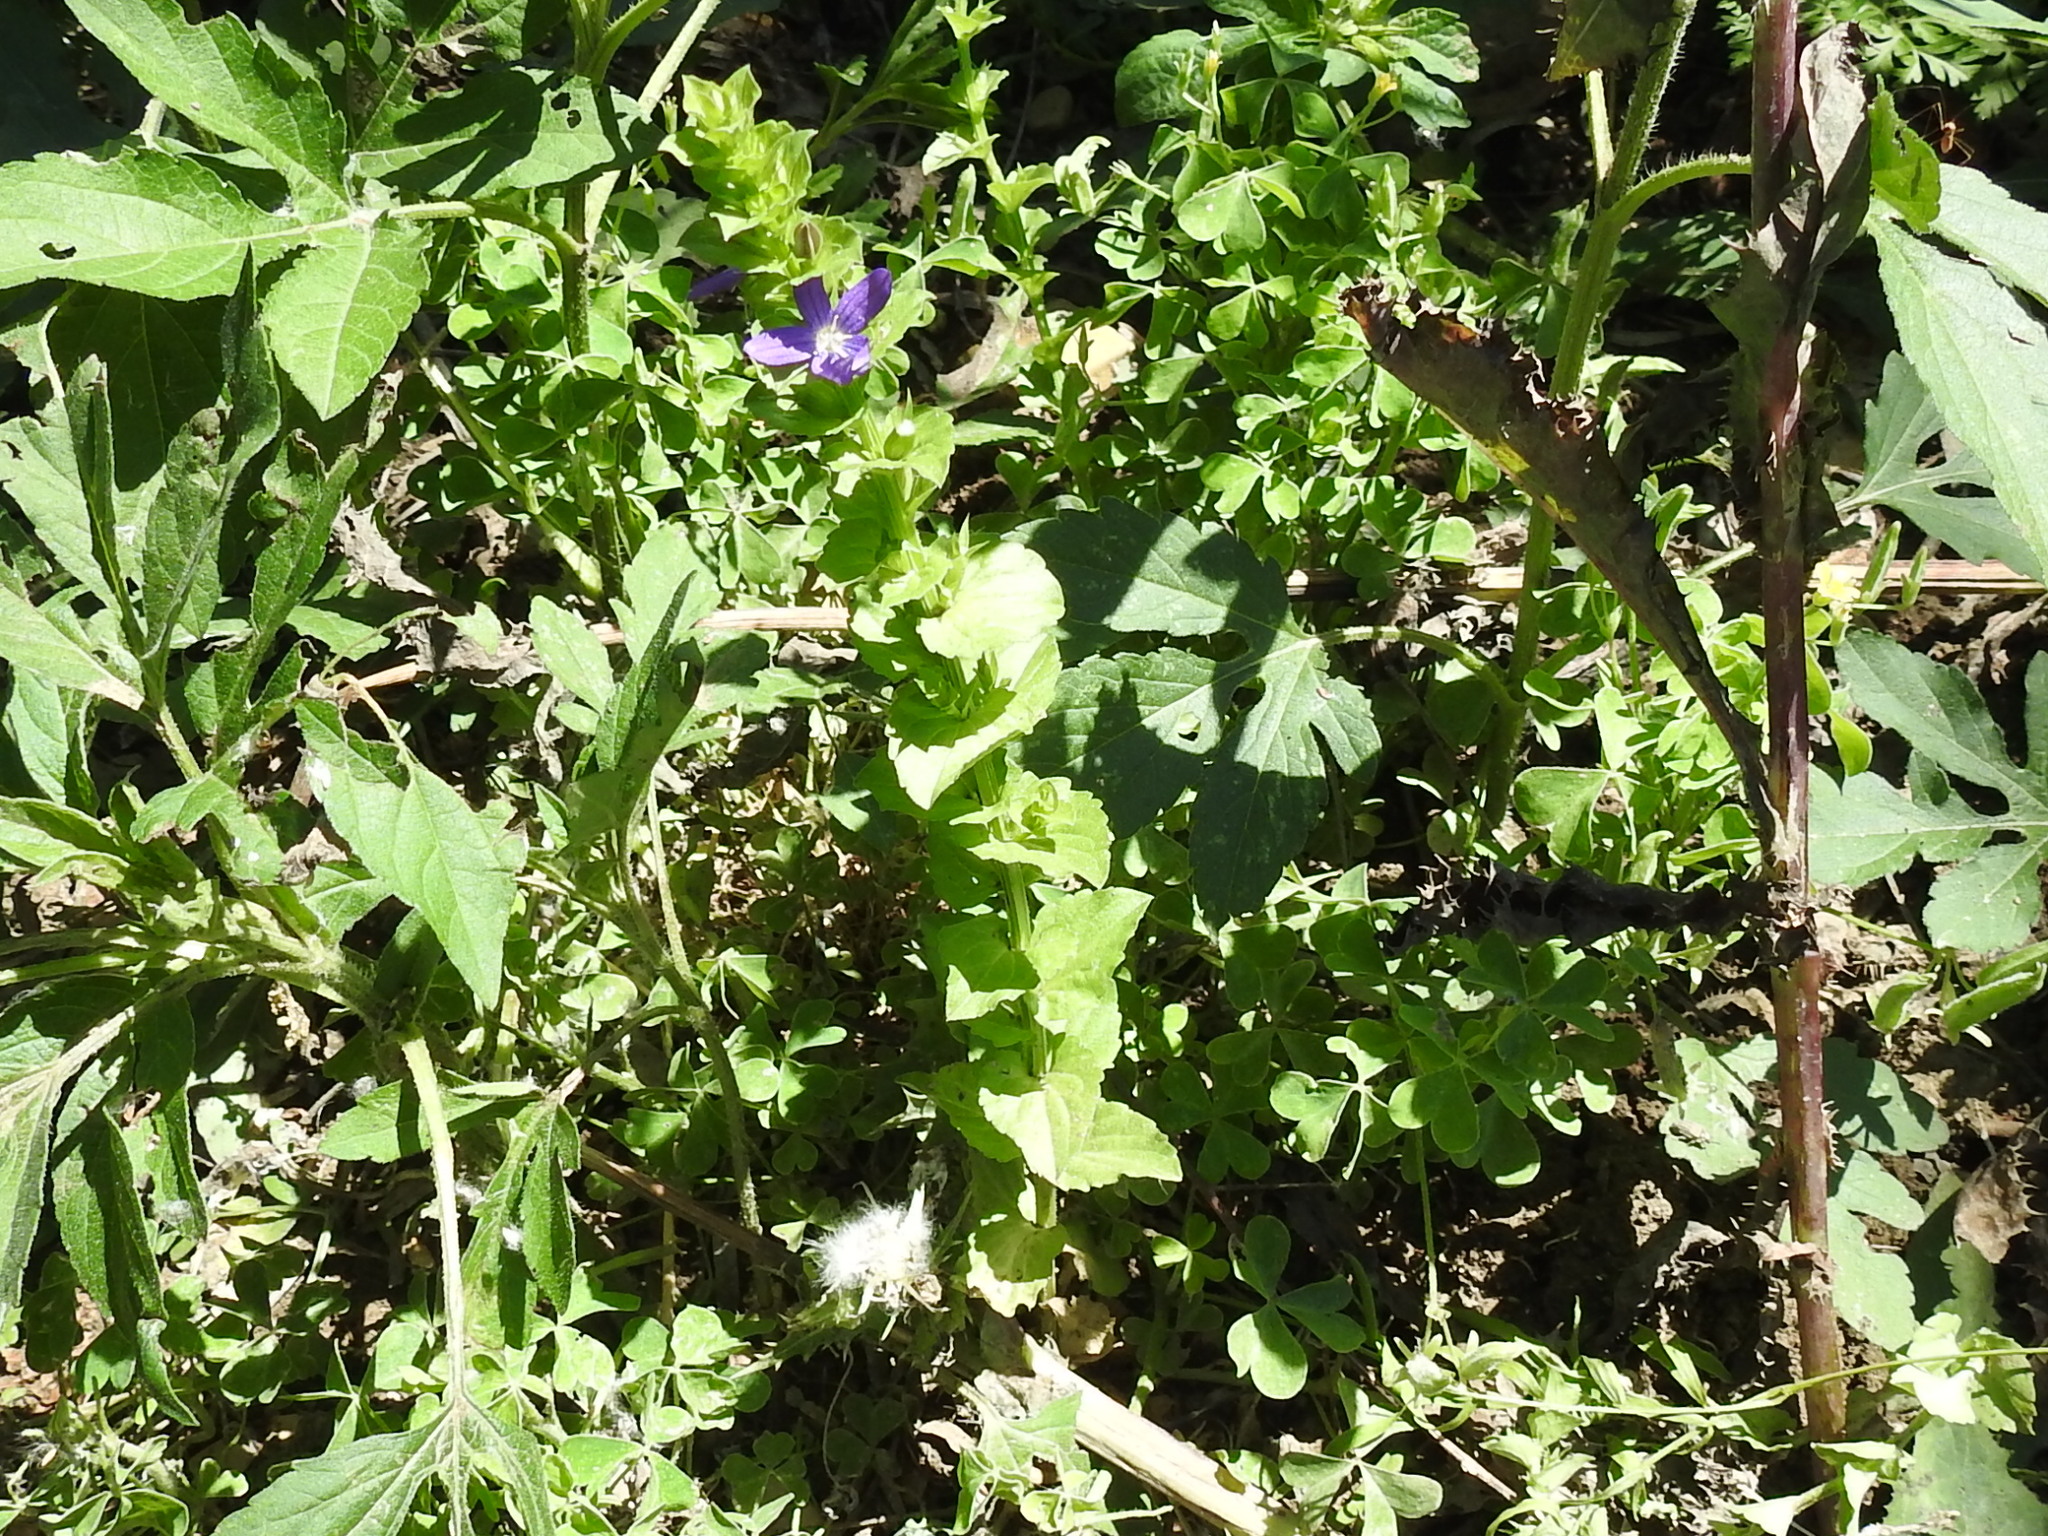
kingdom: Plantae
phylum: Tracheophyta
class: Magnoliopsida
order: Asterales
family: Campanulaceae
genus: Triodanis
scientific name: Triodanis perfoliata
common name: Clasping venus' looking-glass
